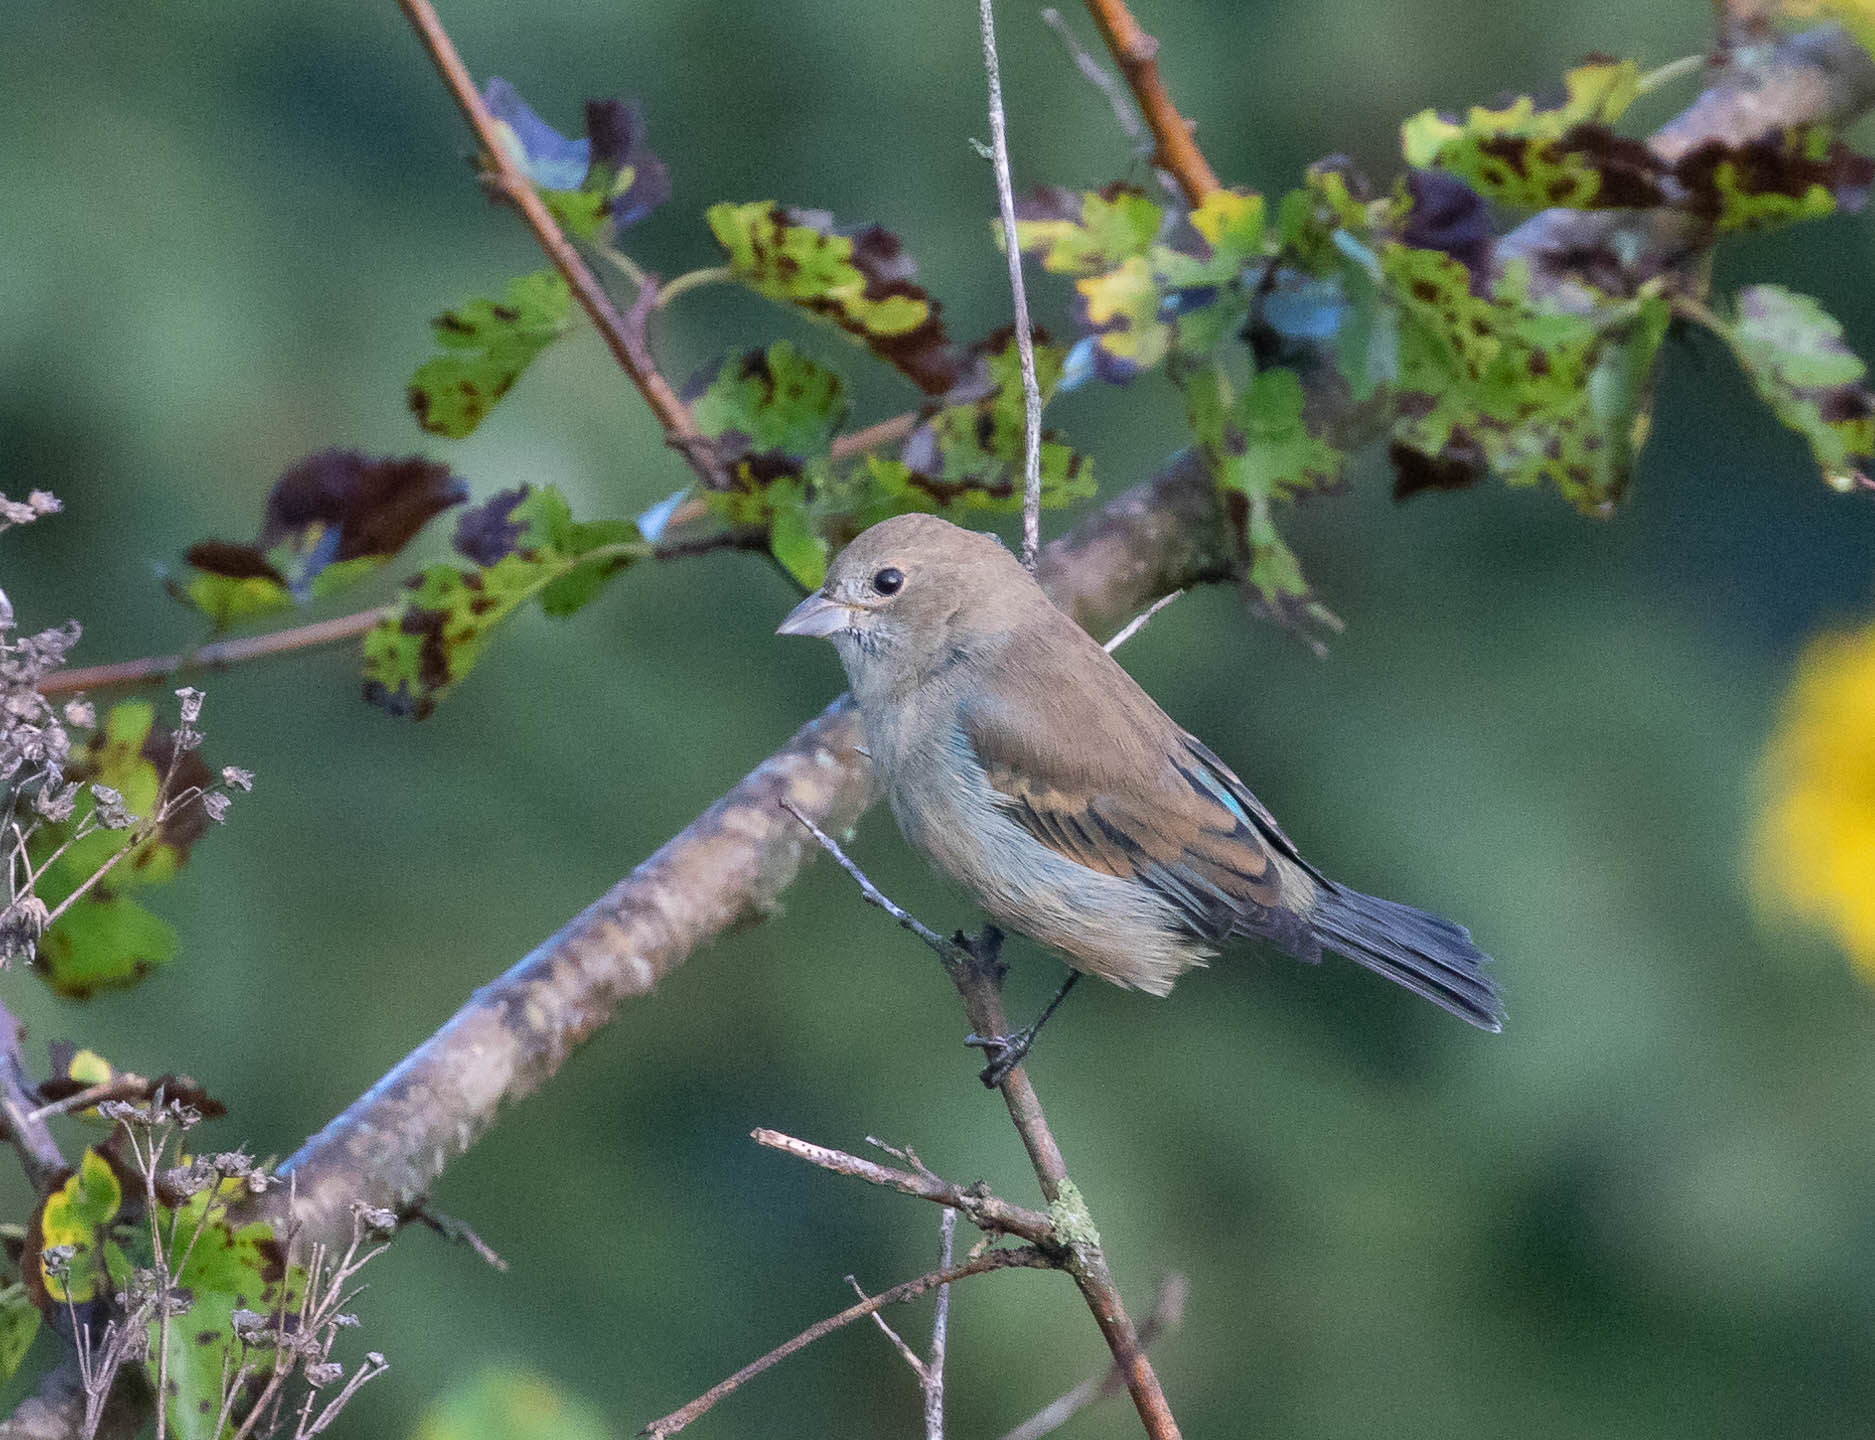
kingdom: Animalia
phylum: Chordata
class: Aves
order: Passeriformes
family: Cardinalidae
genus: Passerina
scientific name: Passerina cyanea
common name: Indigo bunting
